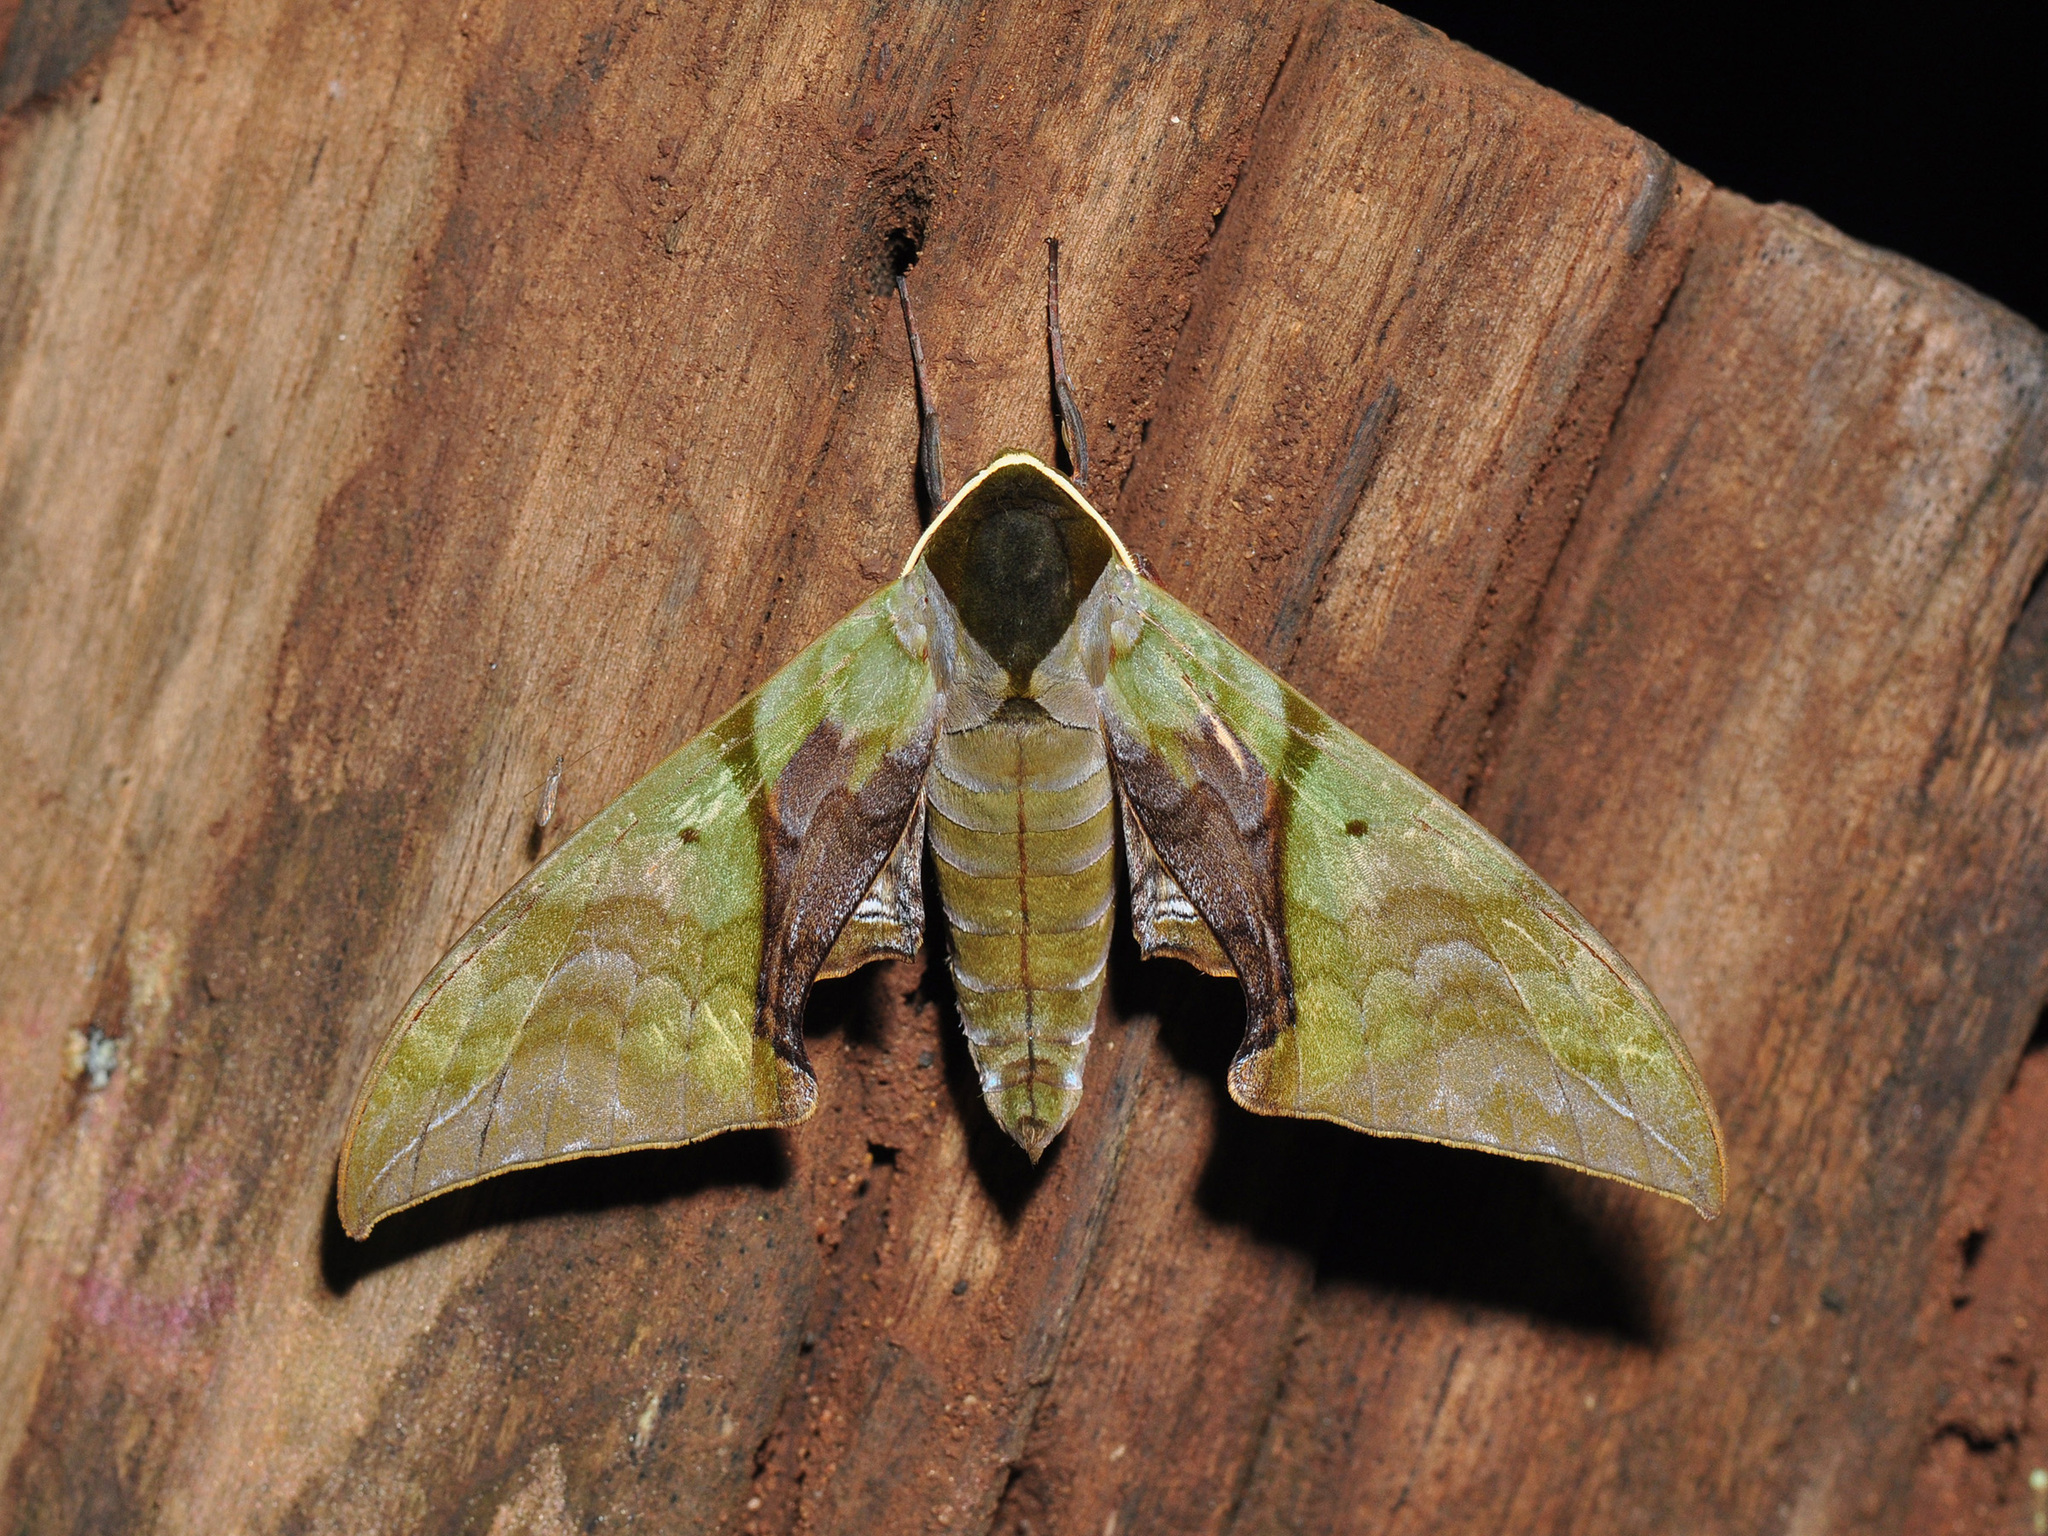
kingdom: Animalia
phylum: Arthropoda
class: Insecta
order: Lepidoptera
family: Sphingidae
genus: Callambulyx
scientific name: Callambulyx rubricosa
